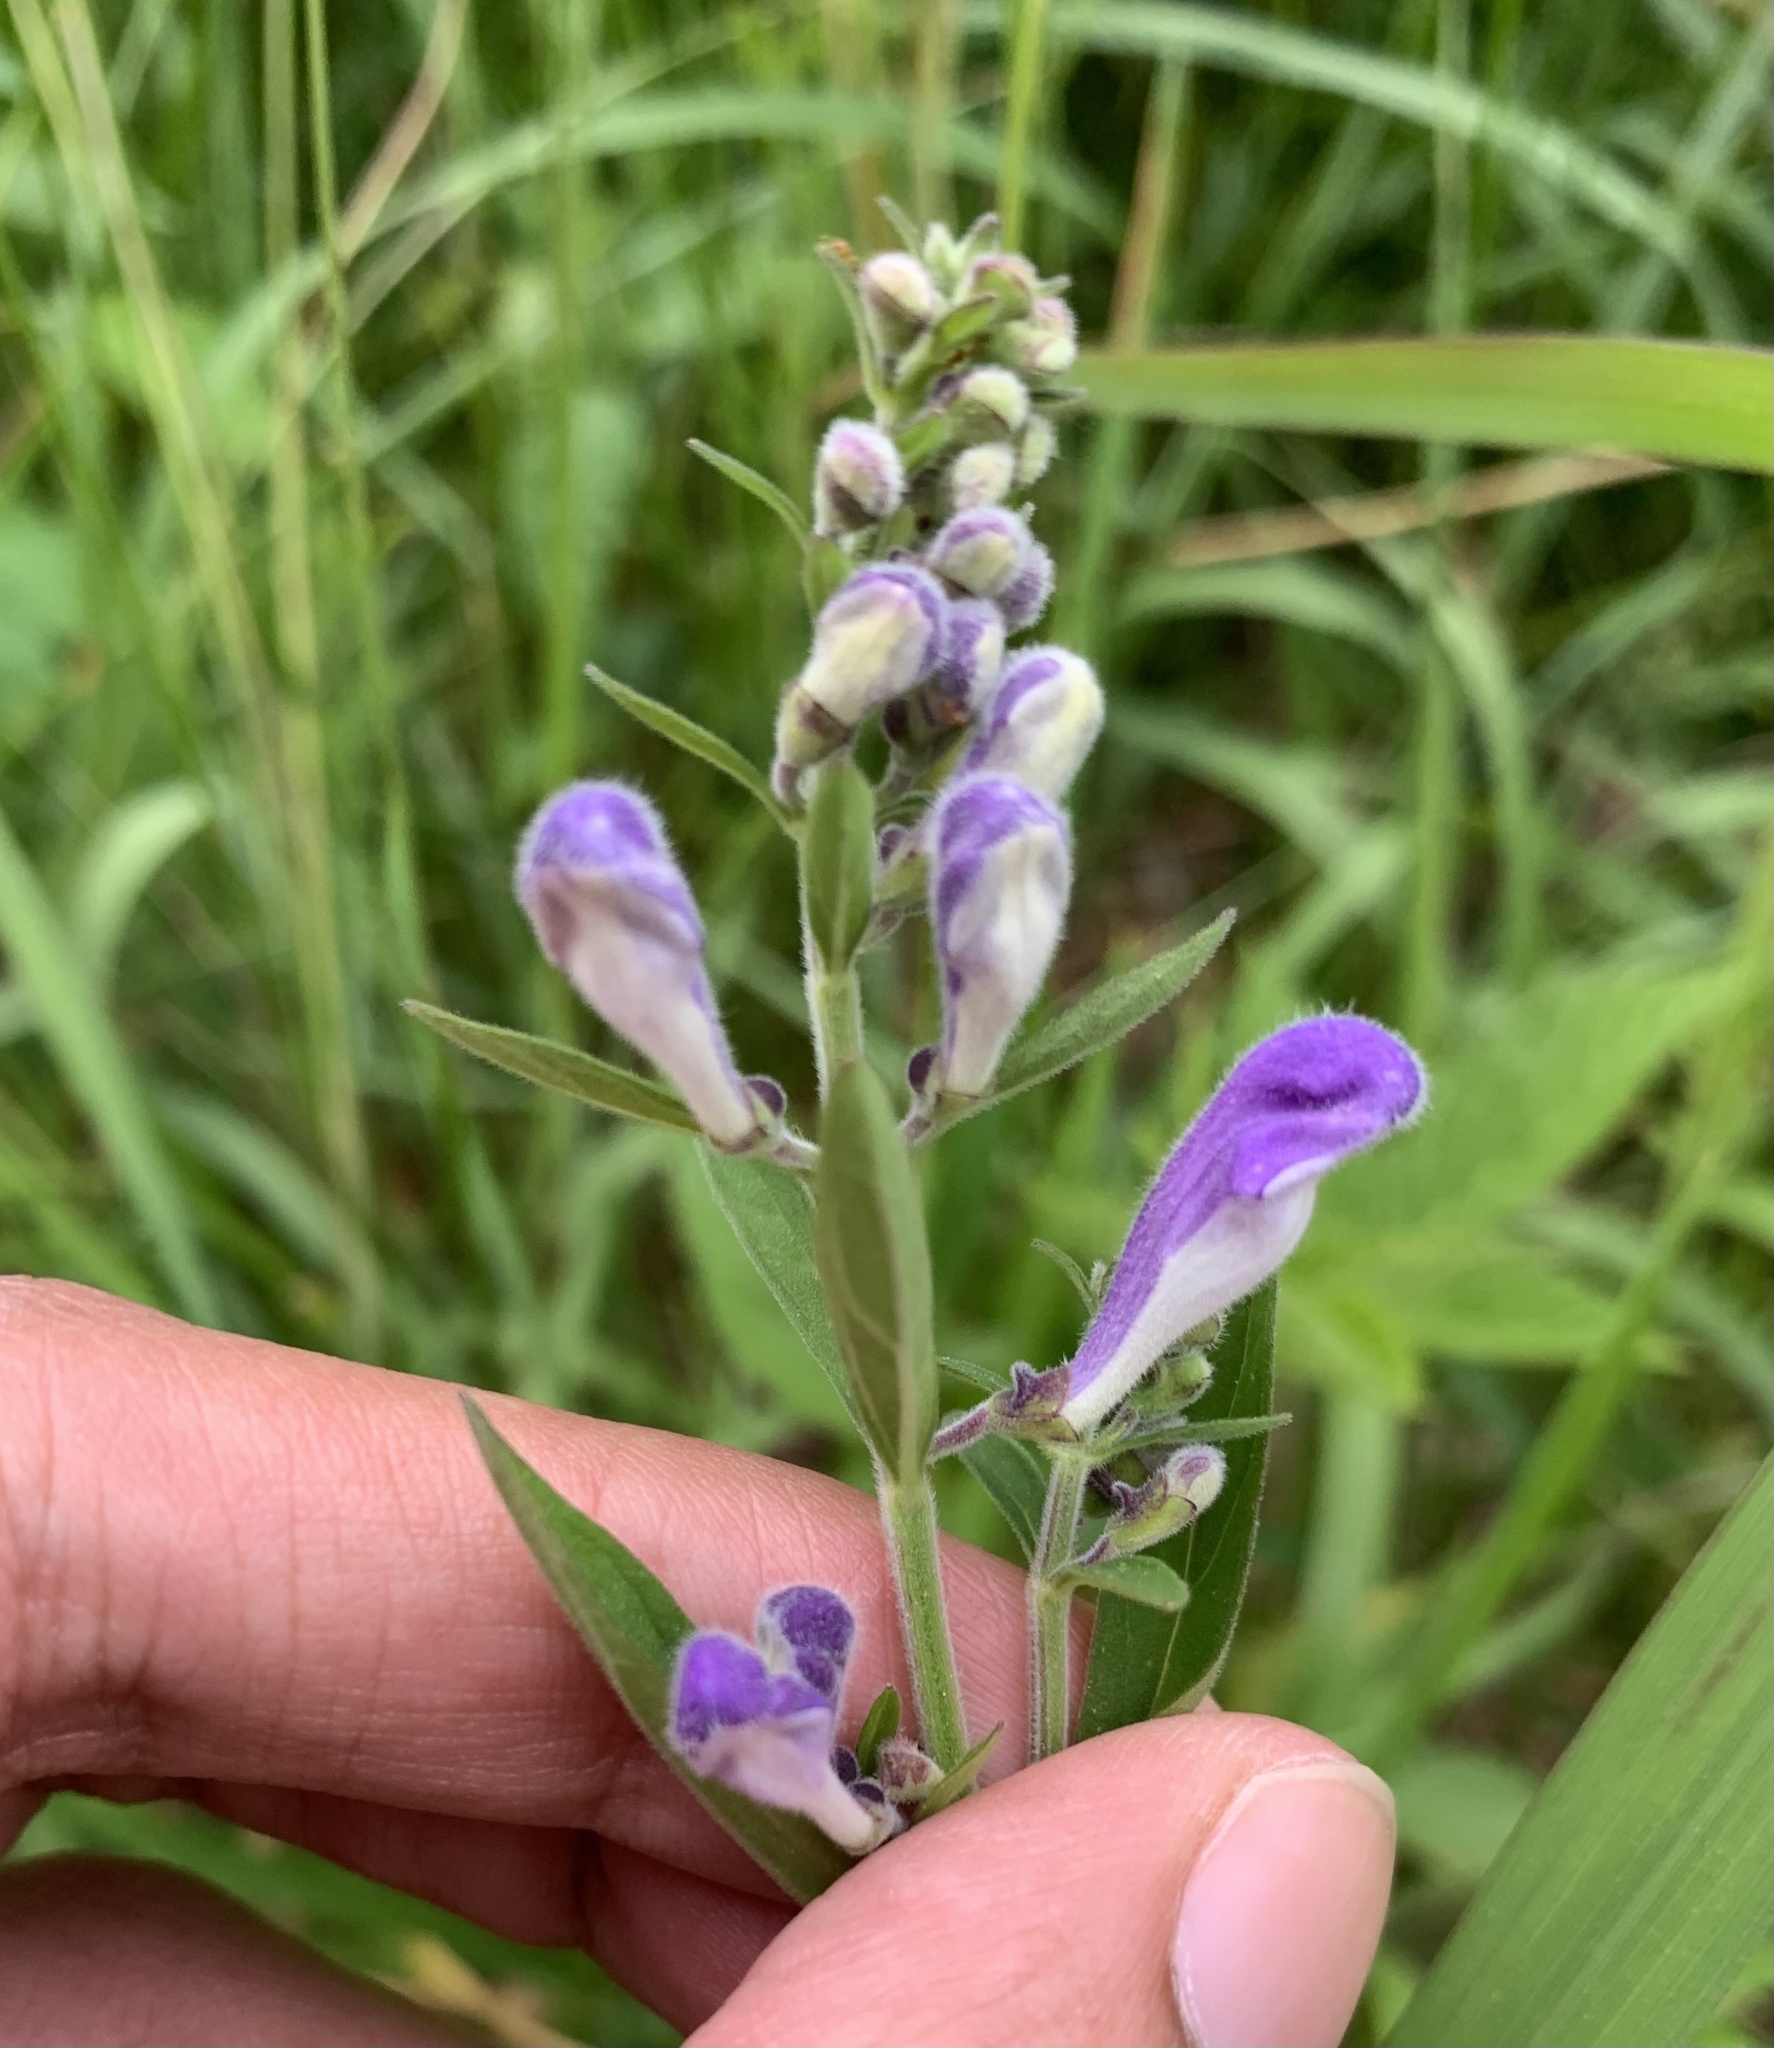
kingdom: Plantae
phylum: Tracheophyta
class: Magnoliopsida
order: Lamiales
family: Lamiaceae
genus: Scutellaria
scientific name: Scutellaria integrifolia
